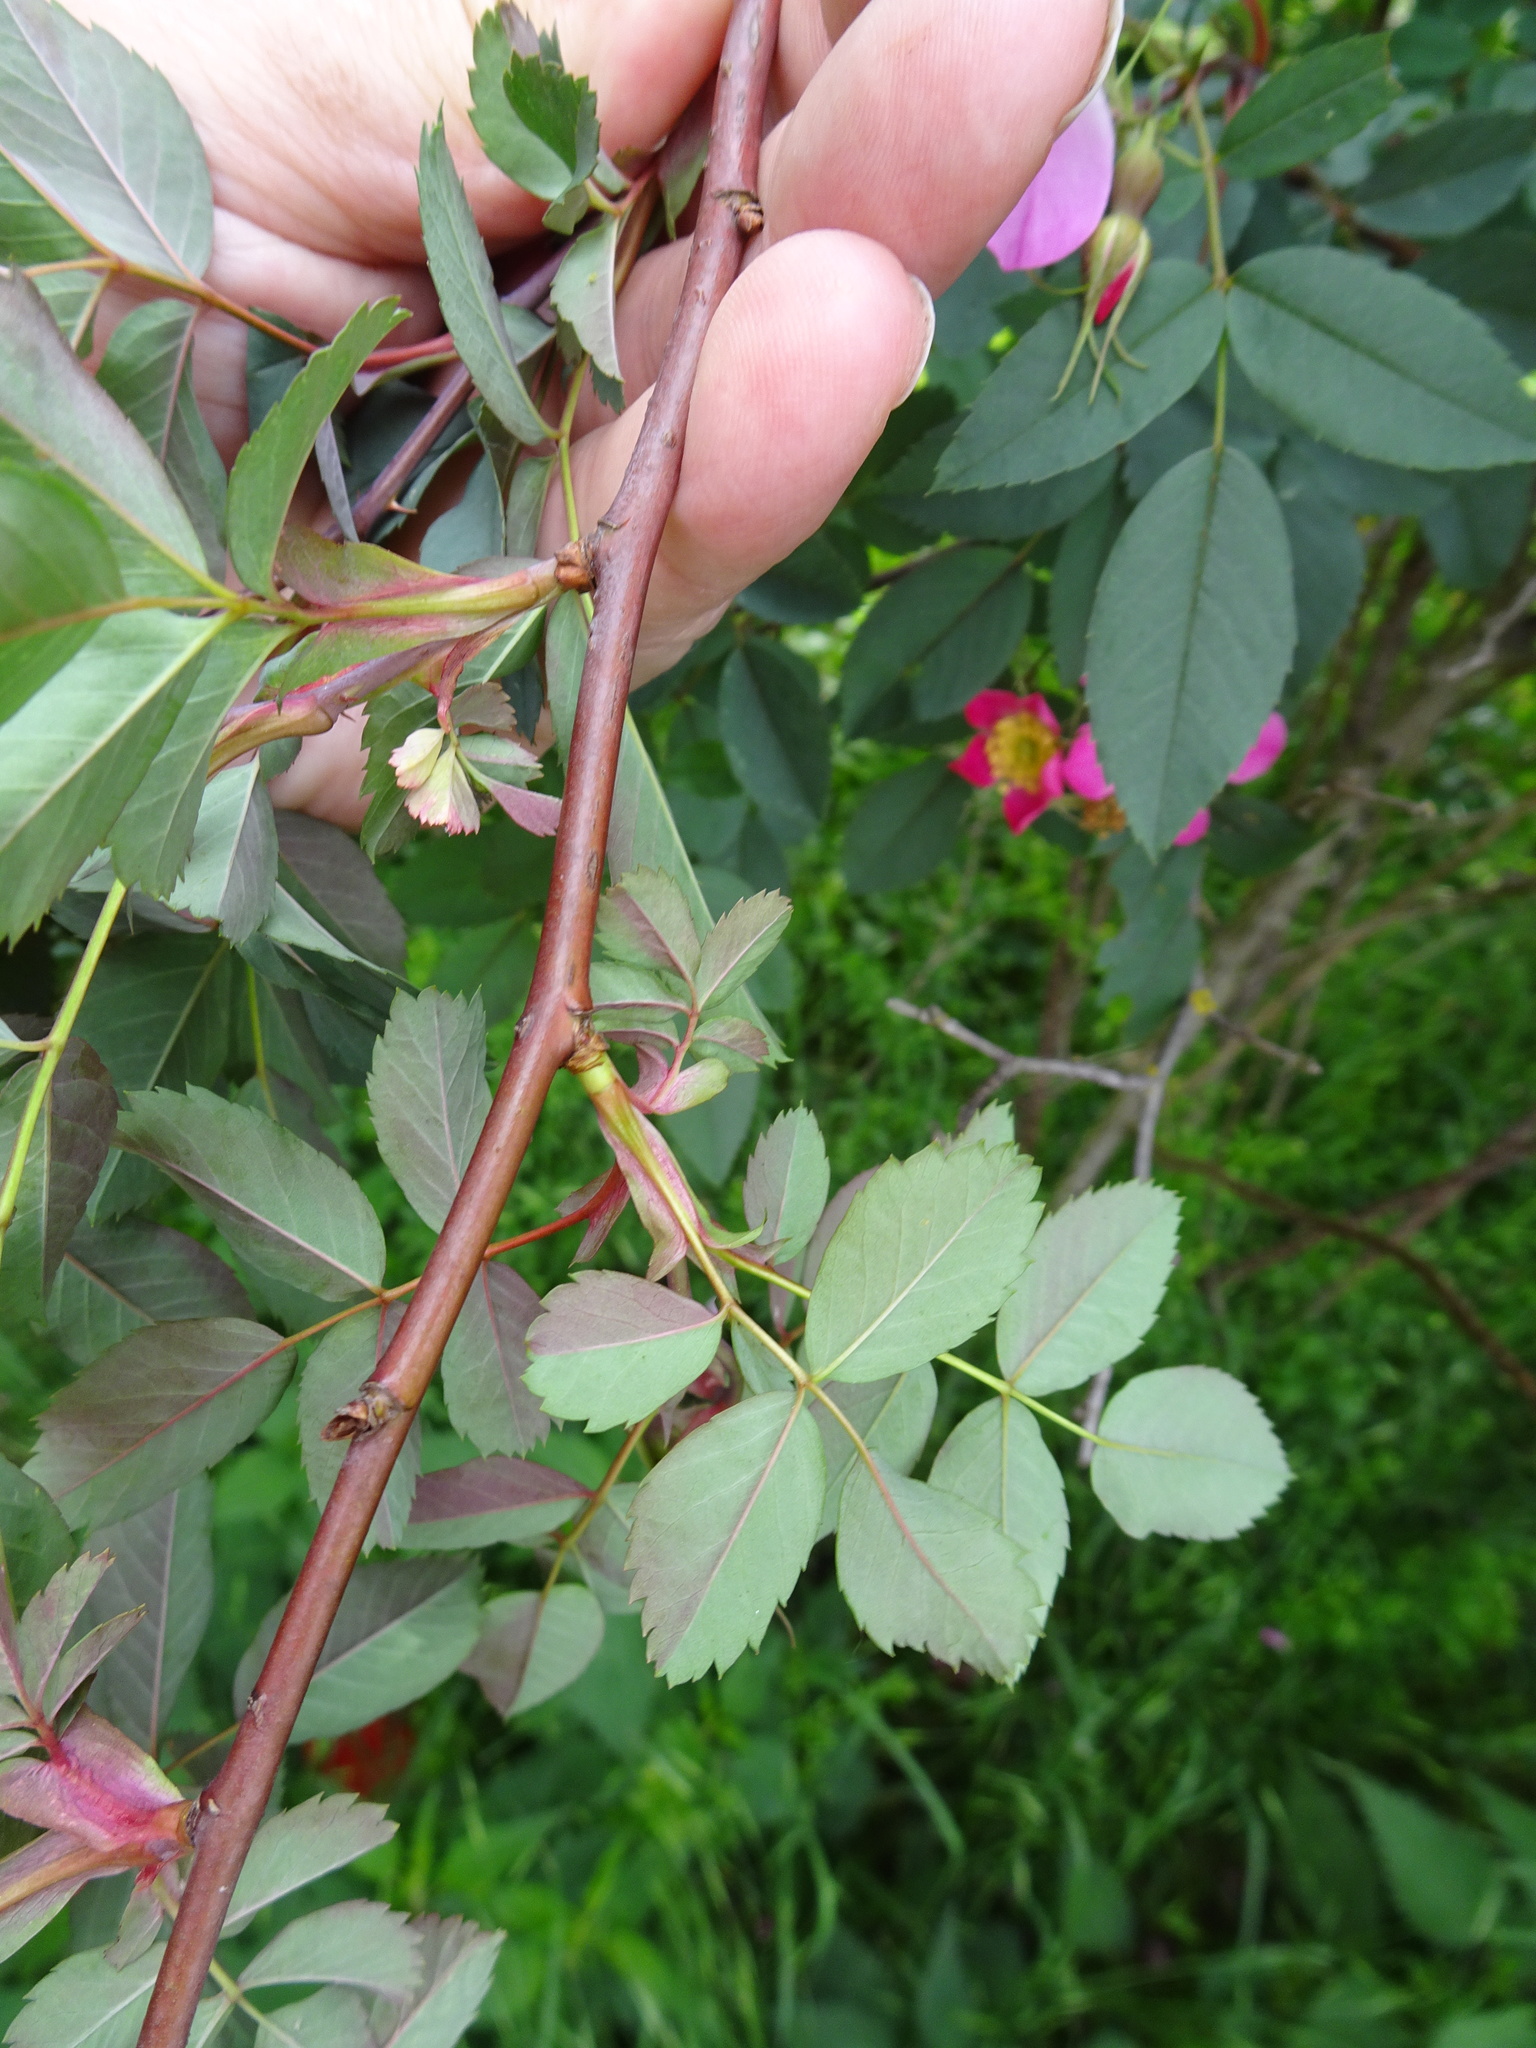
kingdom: Plantae
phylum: Tracheophyta
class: Magnoliopsida
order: Rosales
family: Rosaceae
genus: Rosa
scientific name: Rosa glauca
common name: Redleaf rose
